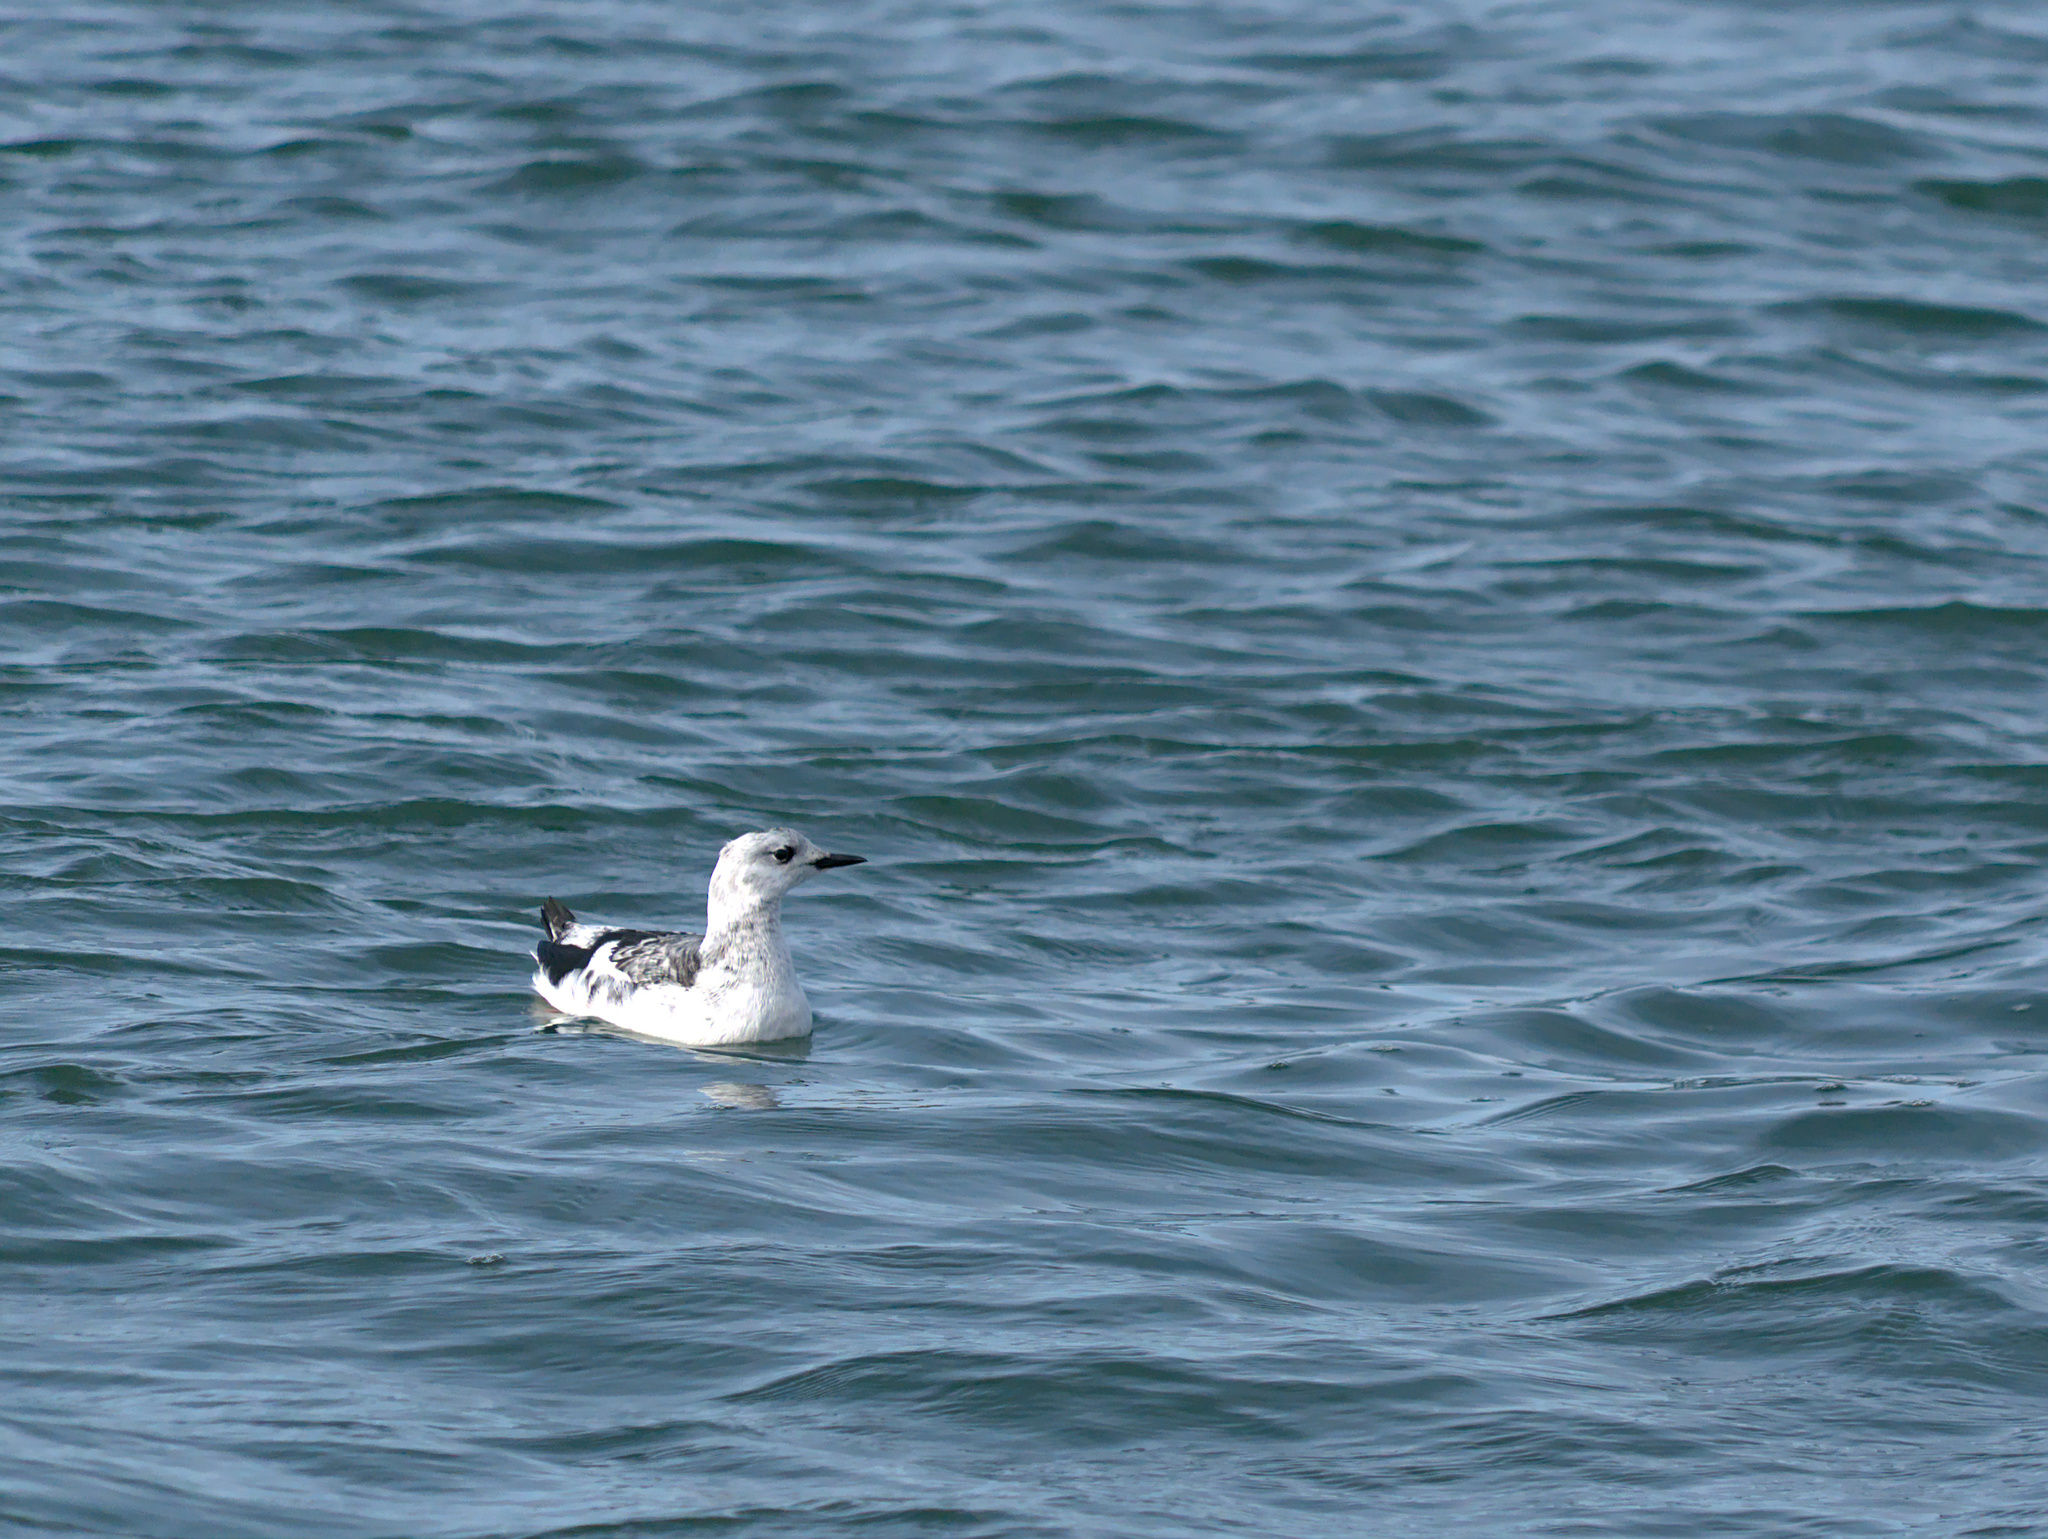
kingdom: Animalia
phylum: Chordata
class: Aves
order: Charadriiformes
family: Alcidae
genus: Cepphus
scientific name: Cepphus grylle
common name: Black guillemot
